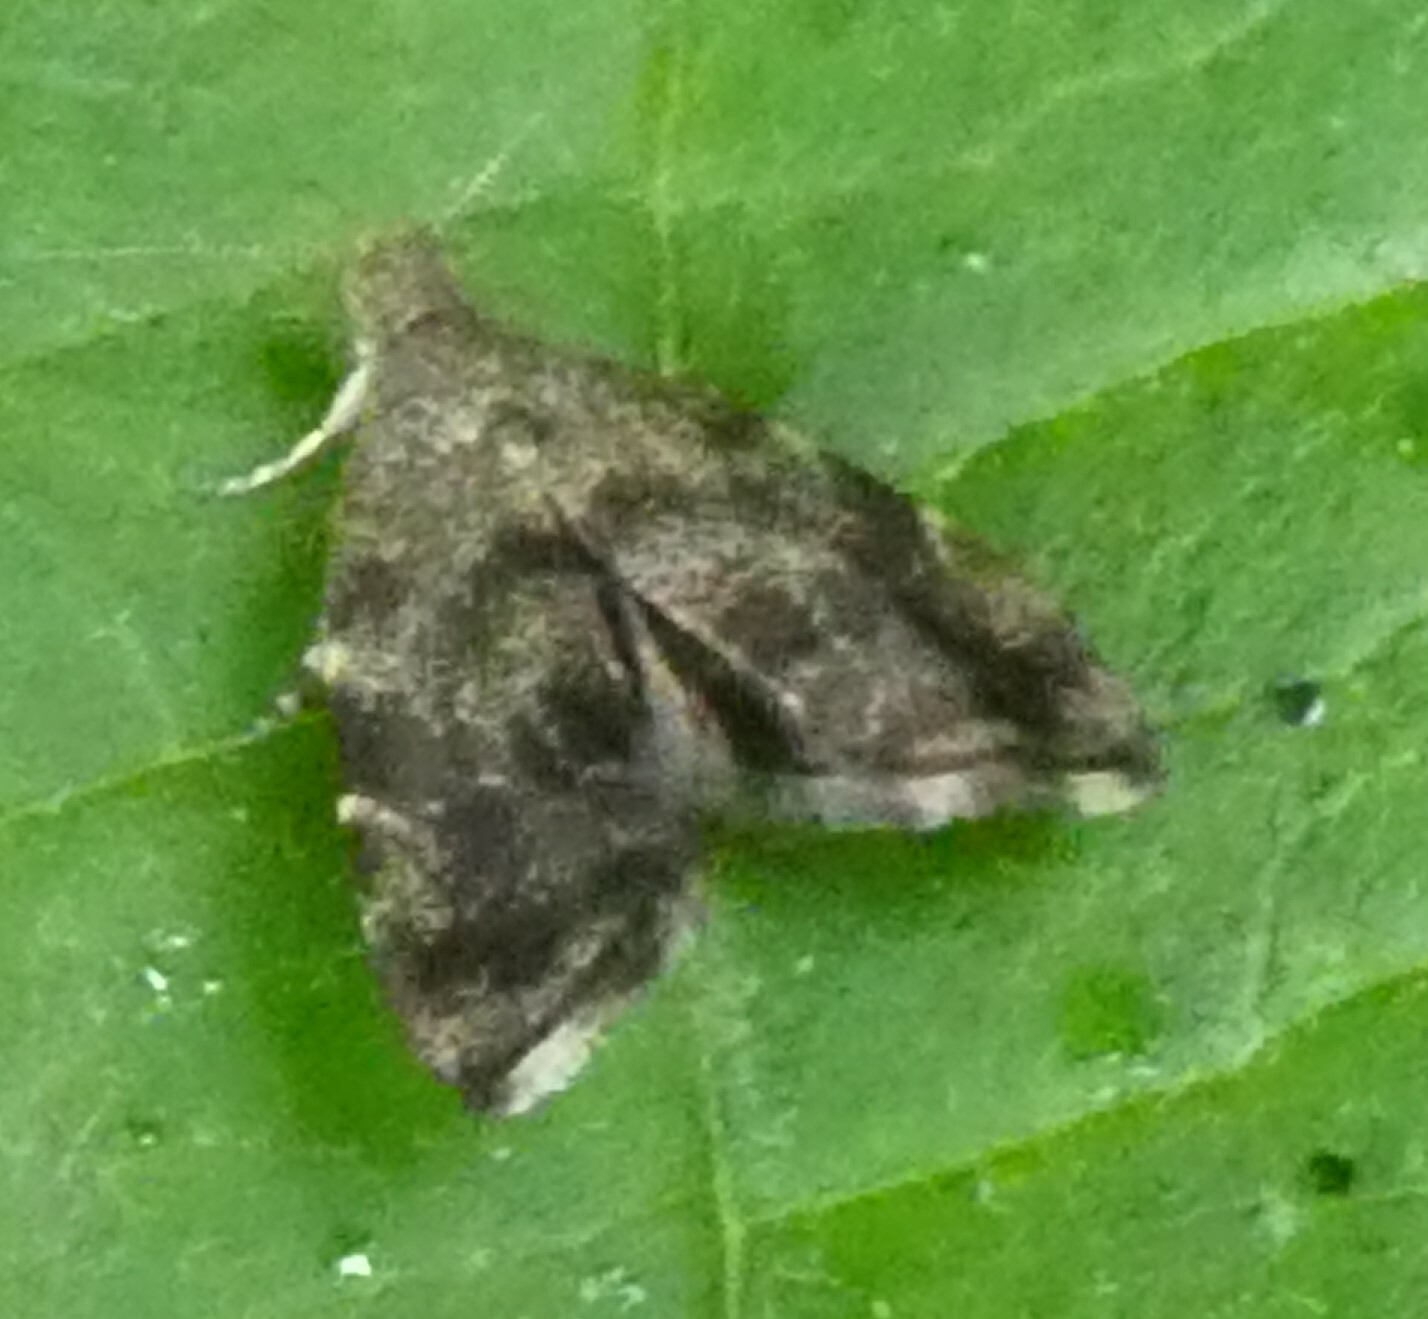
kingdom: Animalia
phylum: Arthropoda
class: Insecta
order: Lepidoptera
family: Choreutidae
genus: Anthophila
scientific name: Anthophila fabriciana
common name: Nettle-tap
